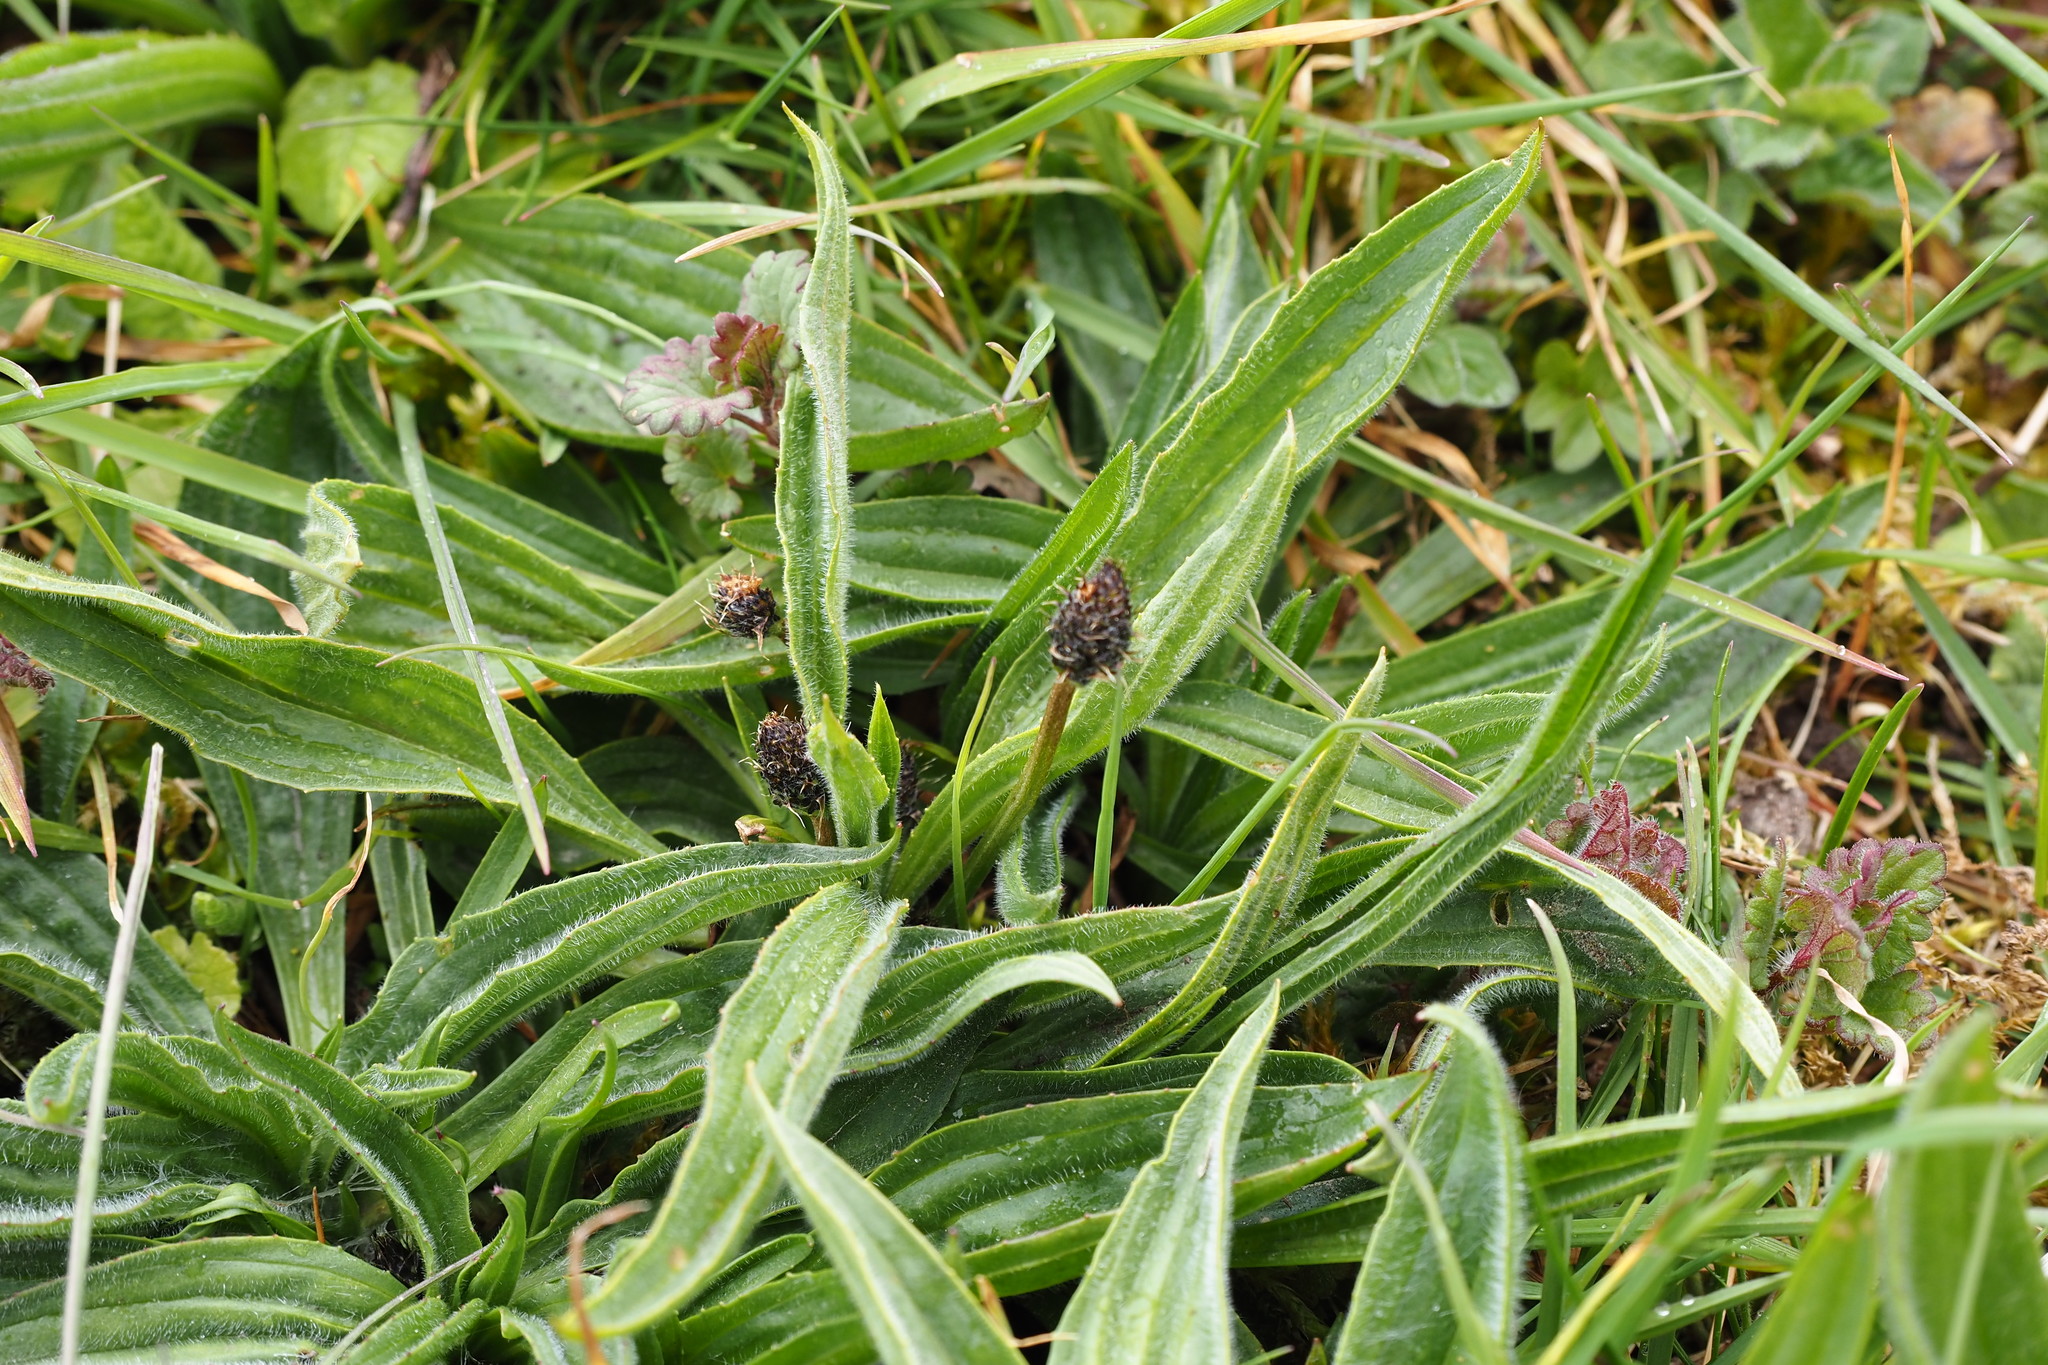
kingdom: Plantae
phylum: Tracheophyta
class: Magnoliopsida
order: Lamiales
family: Plantaginaceae
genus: Plantago
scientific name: Plantago lanceolata
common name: Ribwort plantain
